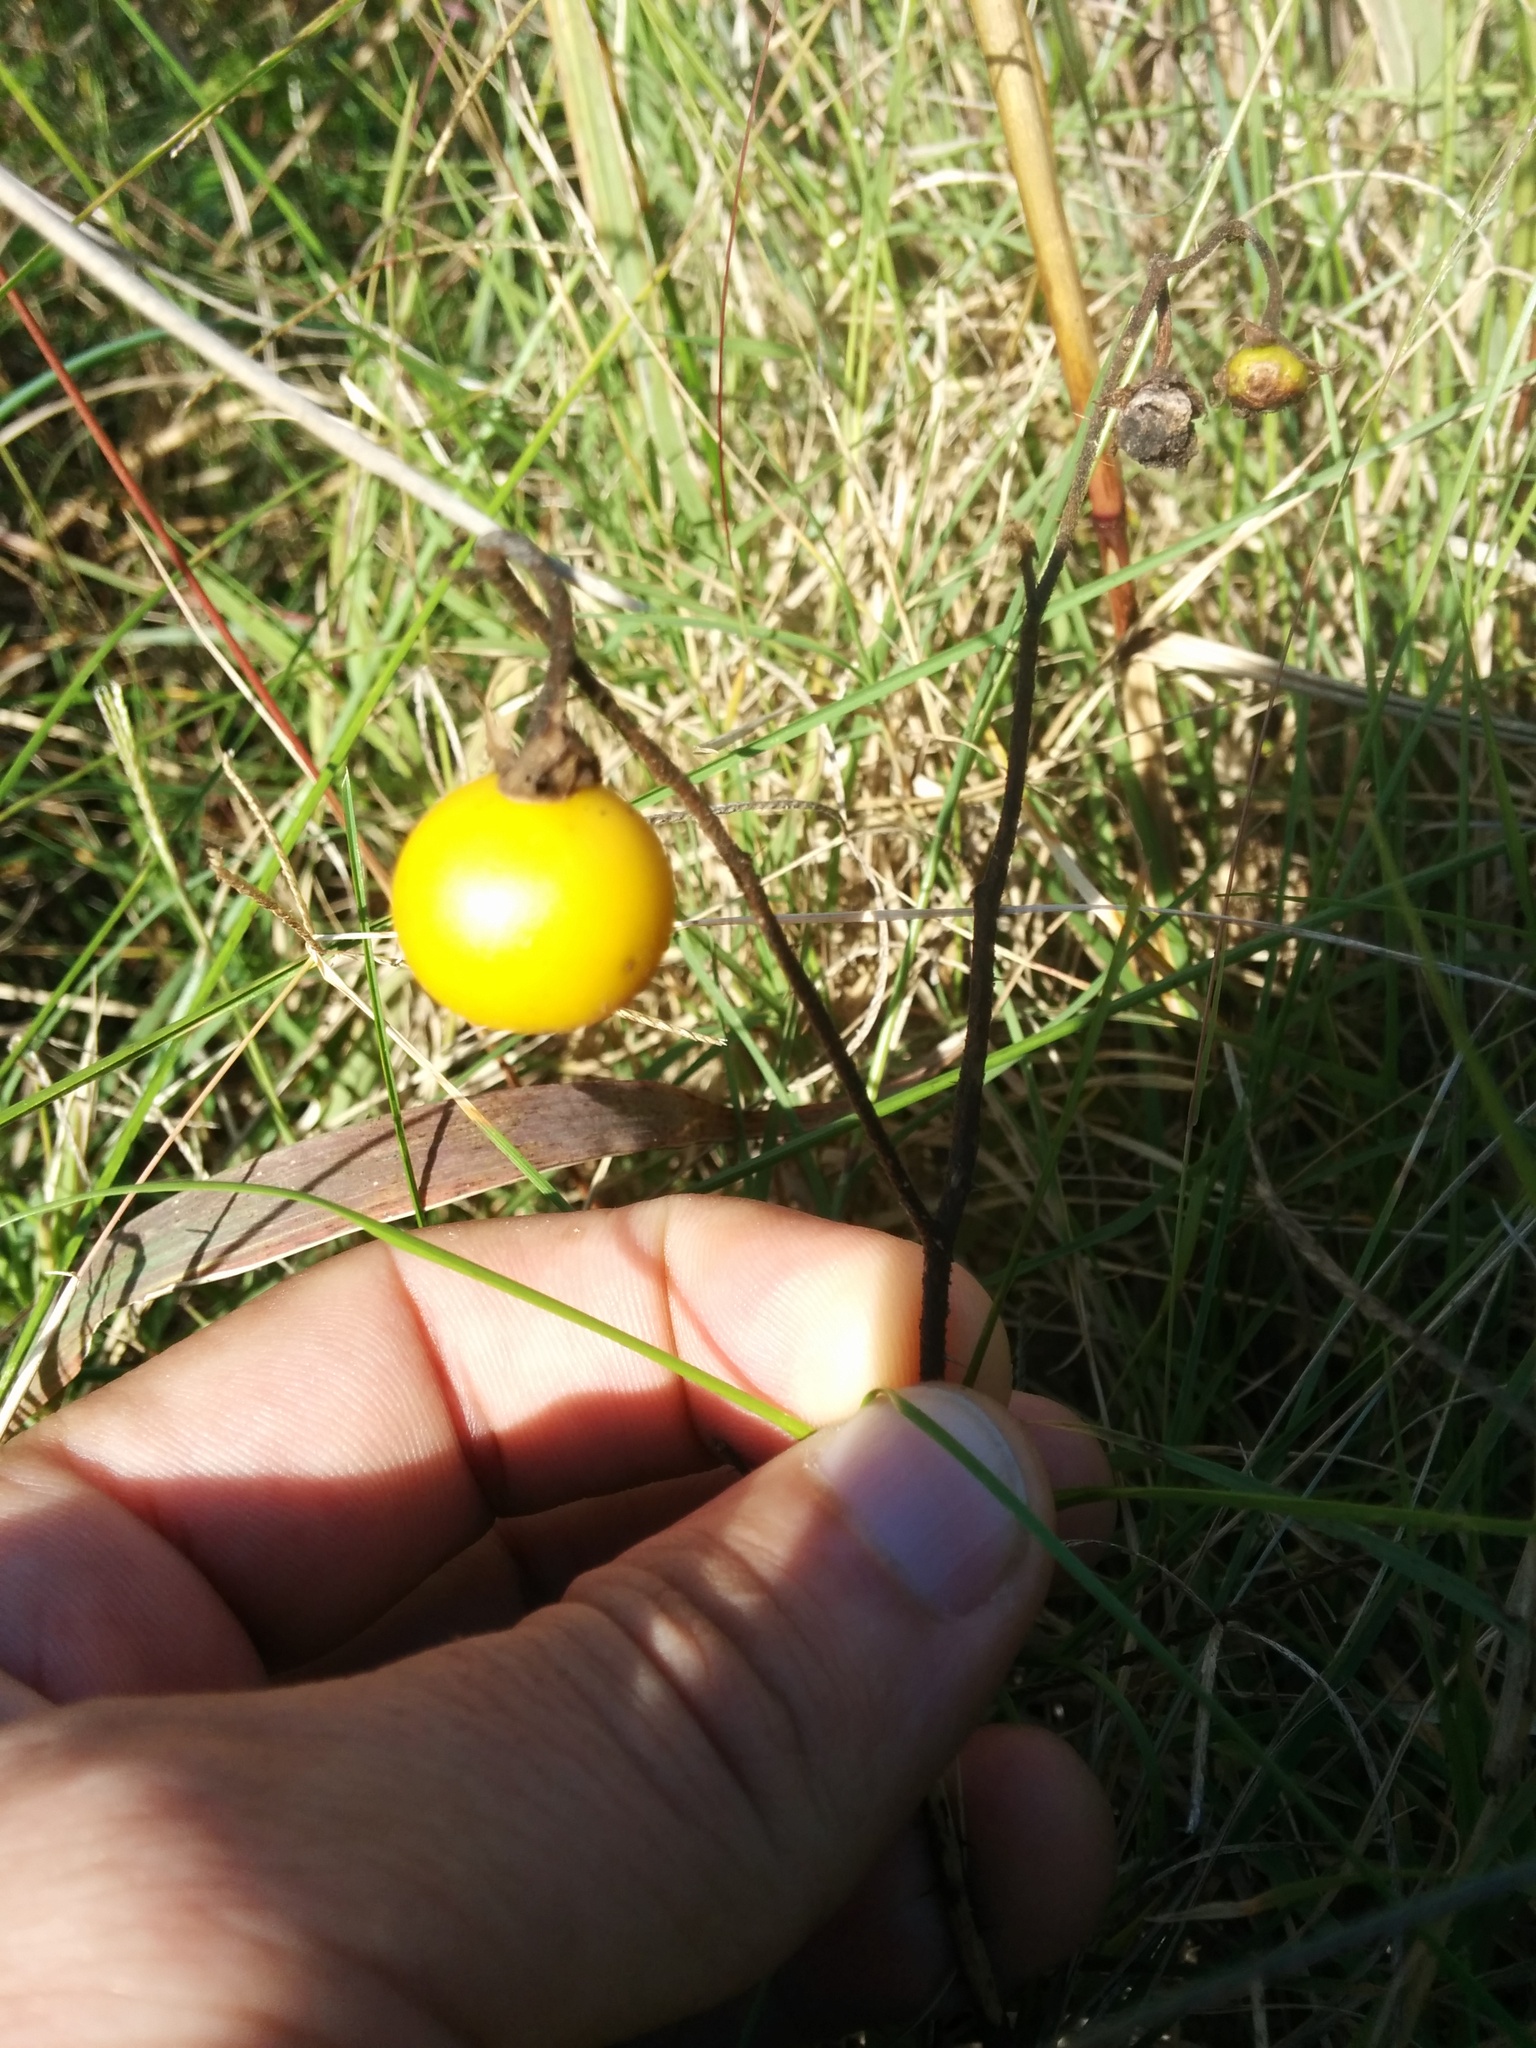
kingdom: Plantae
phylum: Tracheophyta
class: Magnoliopsida
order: Solanales
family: Solanaceae
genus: Solanum
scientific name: Solanum carolinense
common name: Horse-nettle
